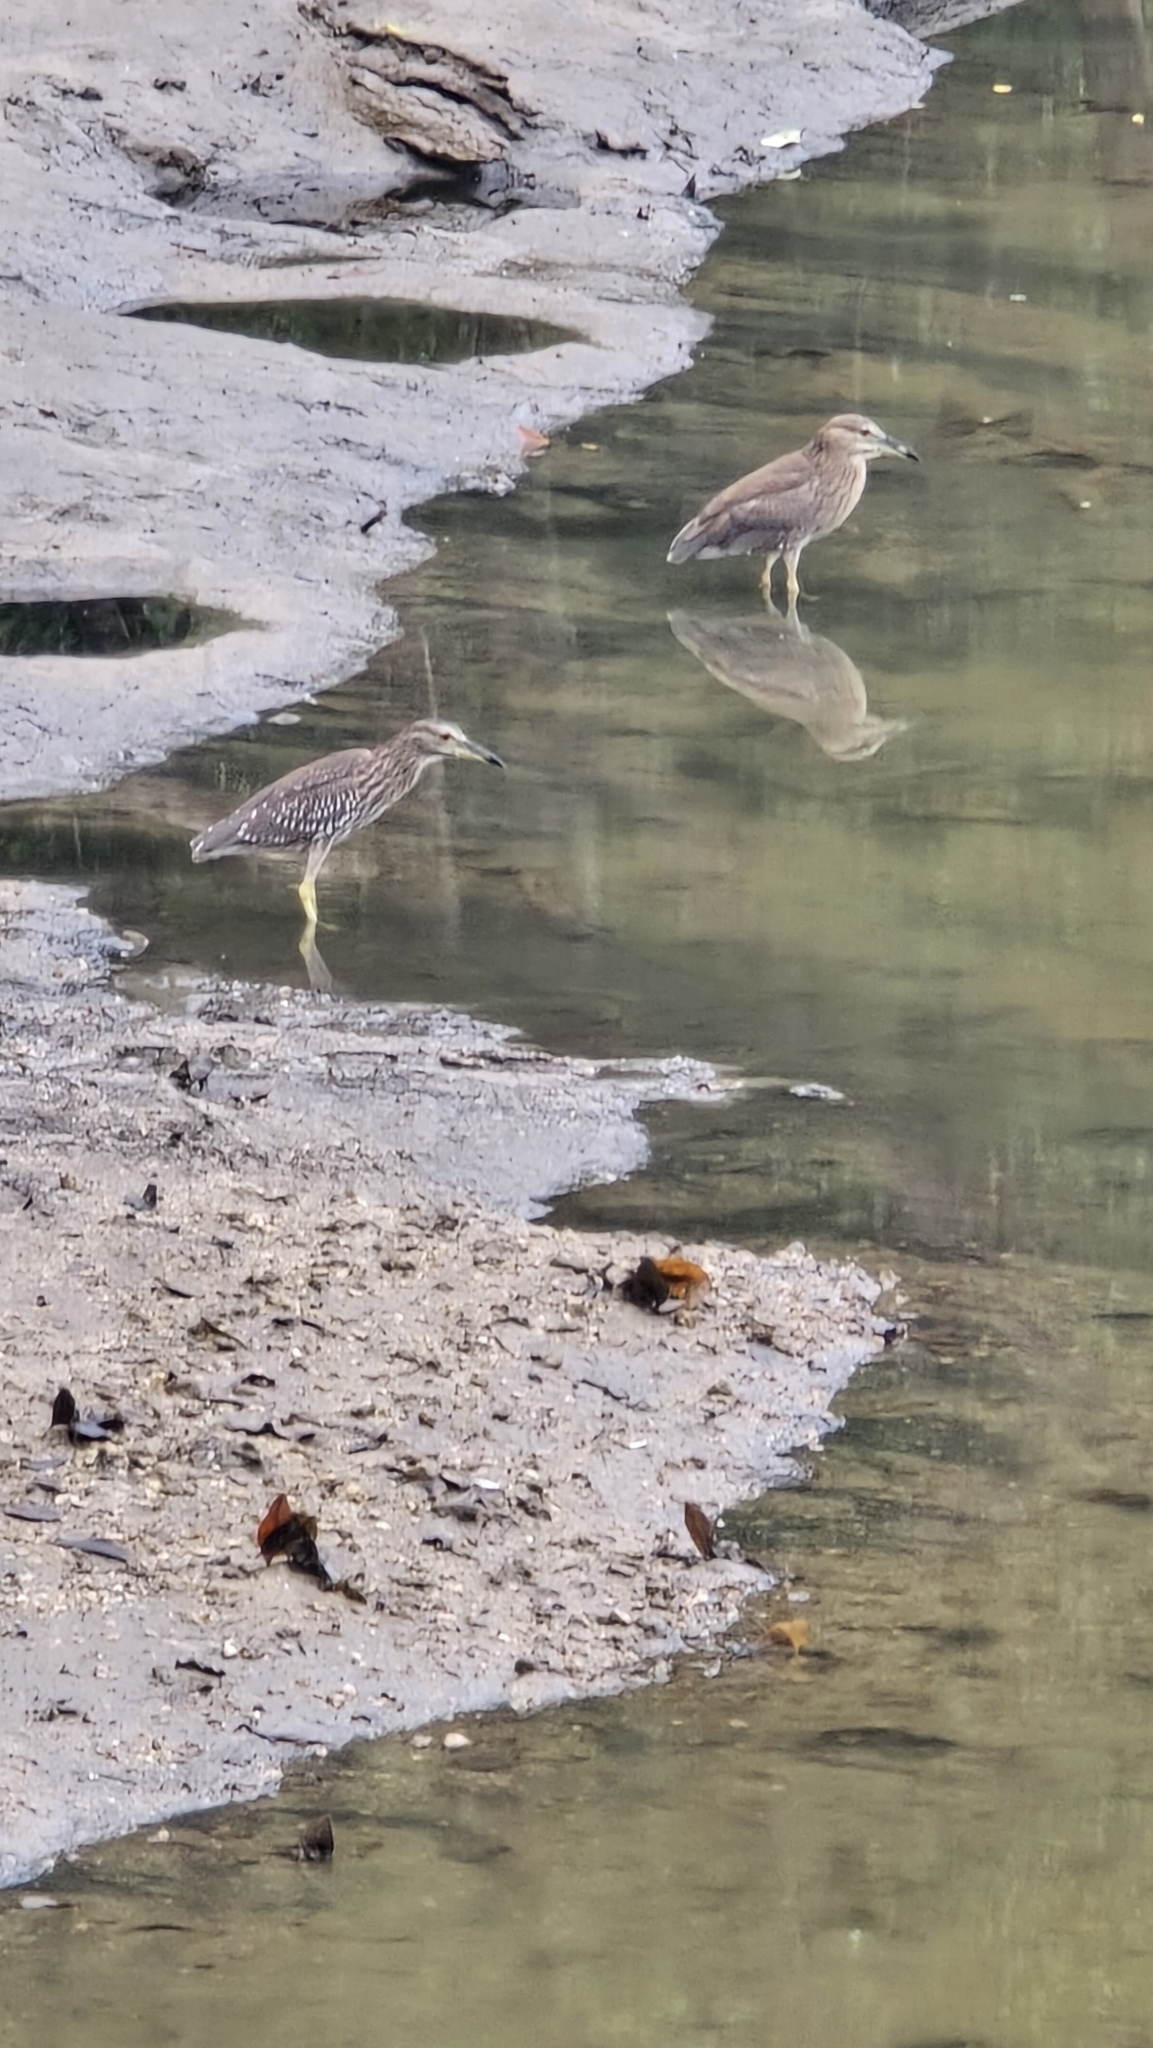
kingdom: Animalia
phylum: Chordata
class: Aves
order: Pelecaniformes
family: Ardeidae
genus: Nycticorax
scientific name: Nycticorax nycticorax
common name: Black-crowned night heron
